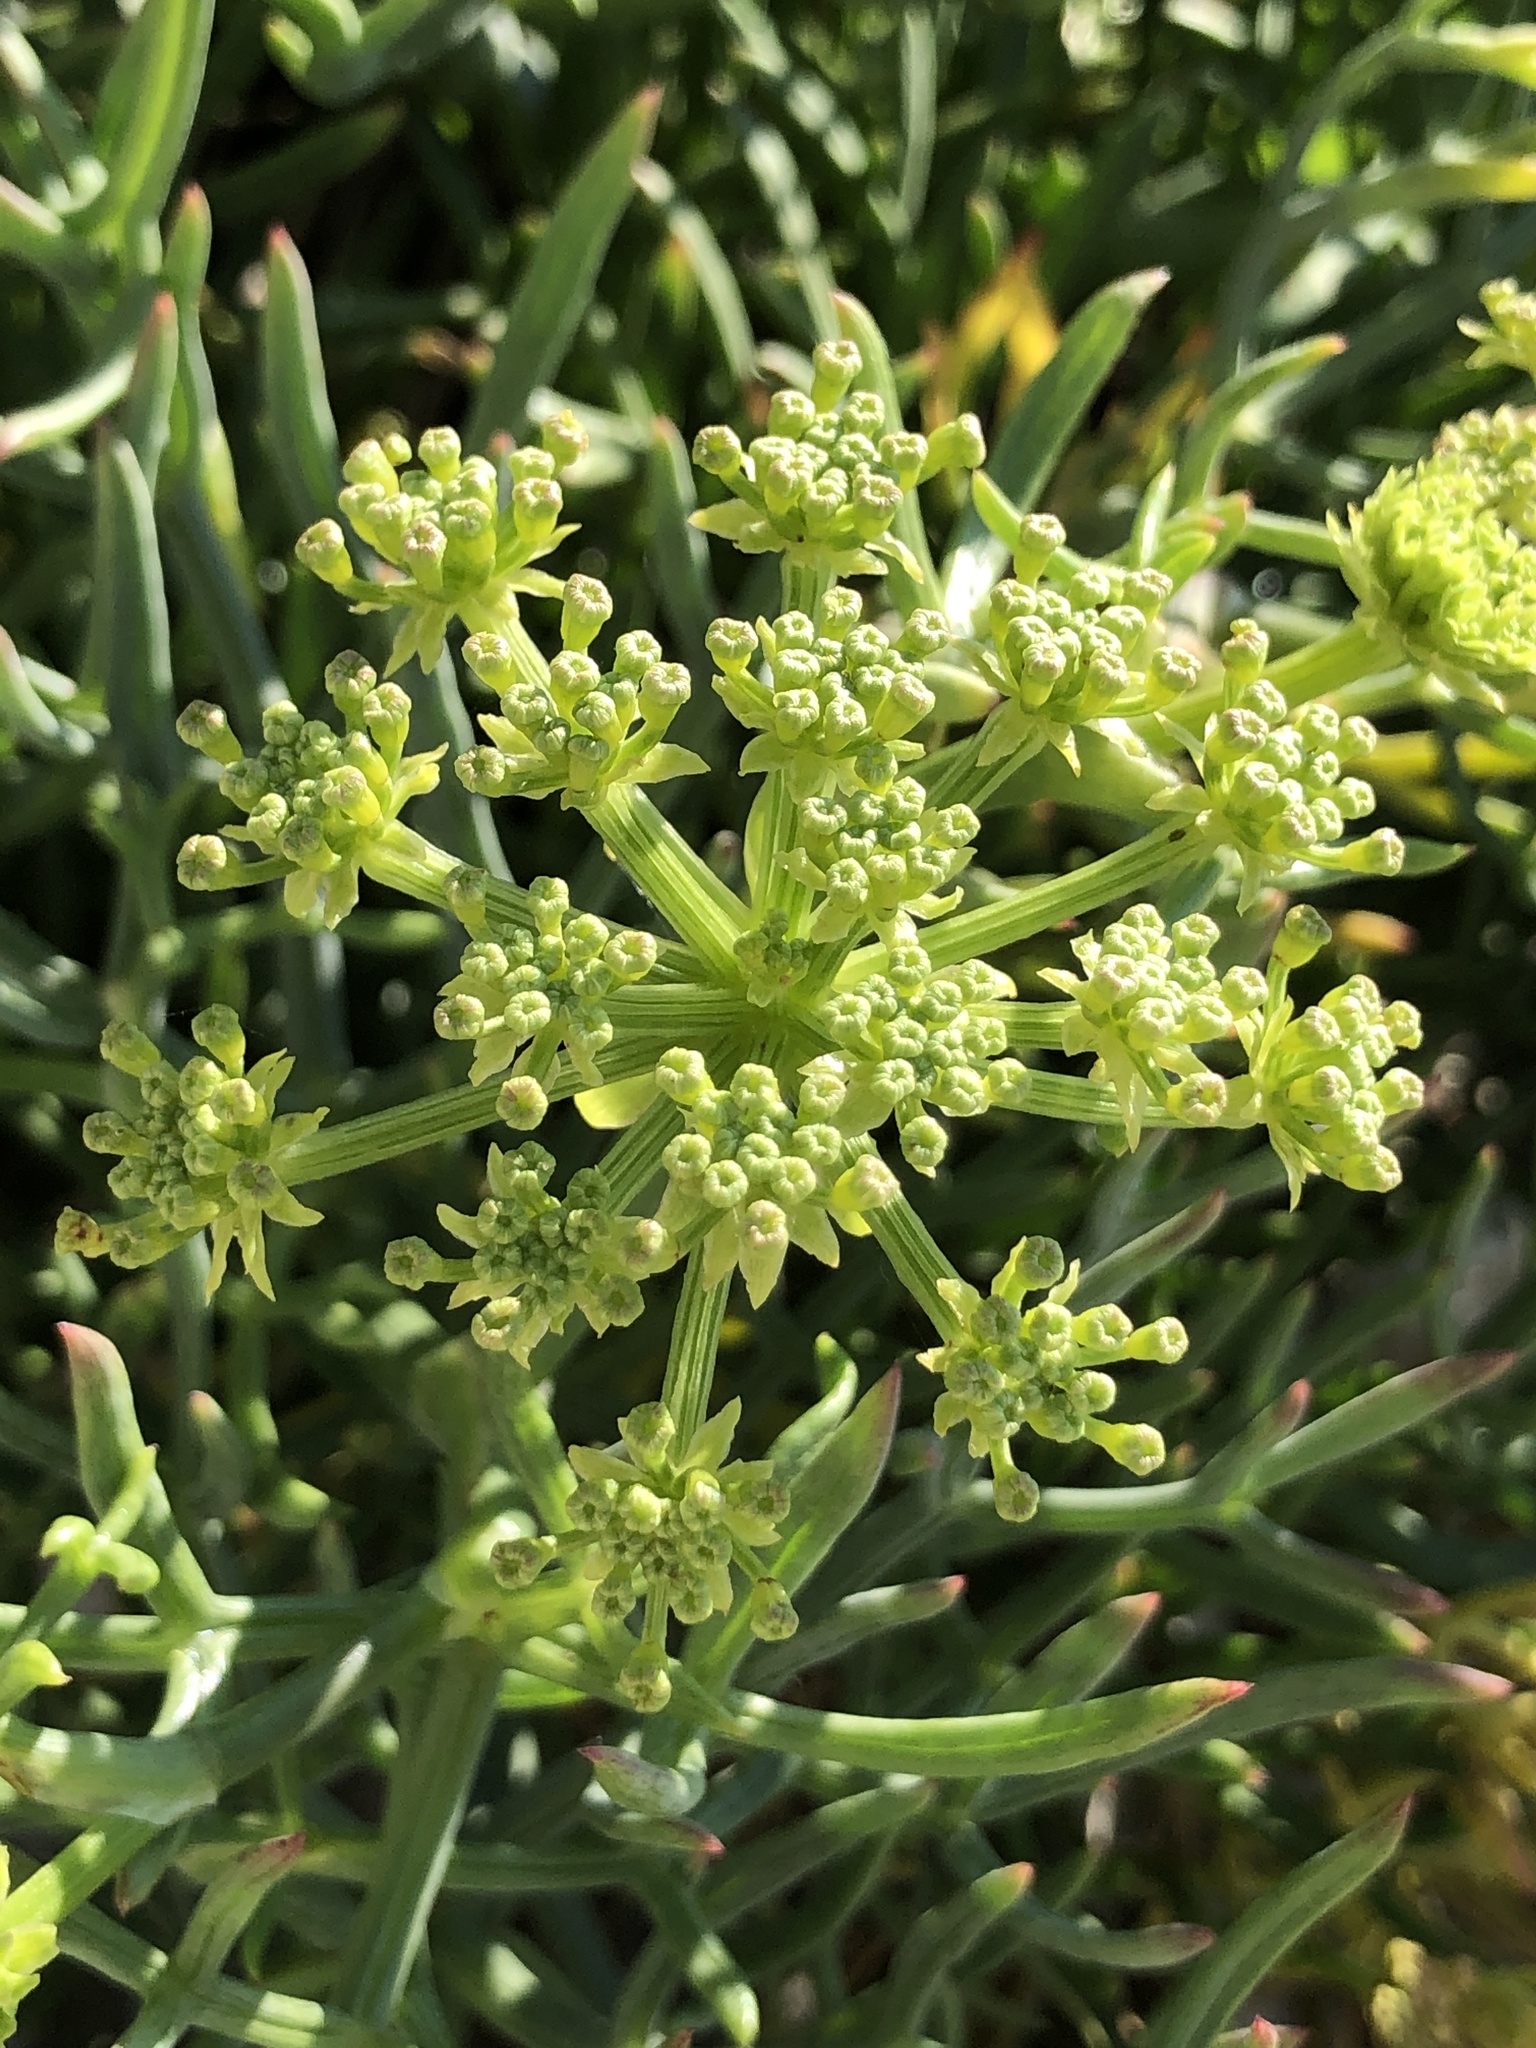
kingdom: Plantae
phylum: Tracheophyta
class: Magnoliopsida
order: Apiales
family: Apiaceae
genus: Crithmum
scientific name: Crithmum maritimum
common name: Rock samphire
